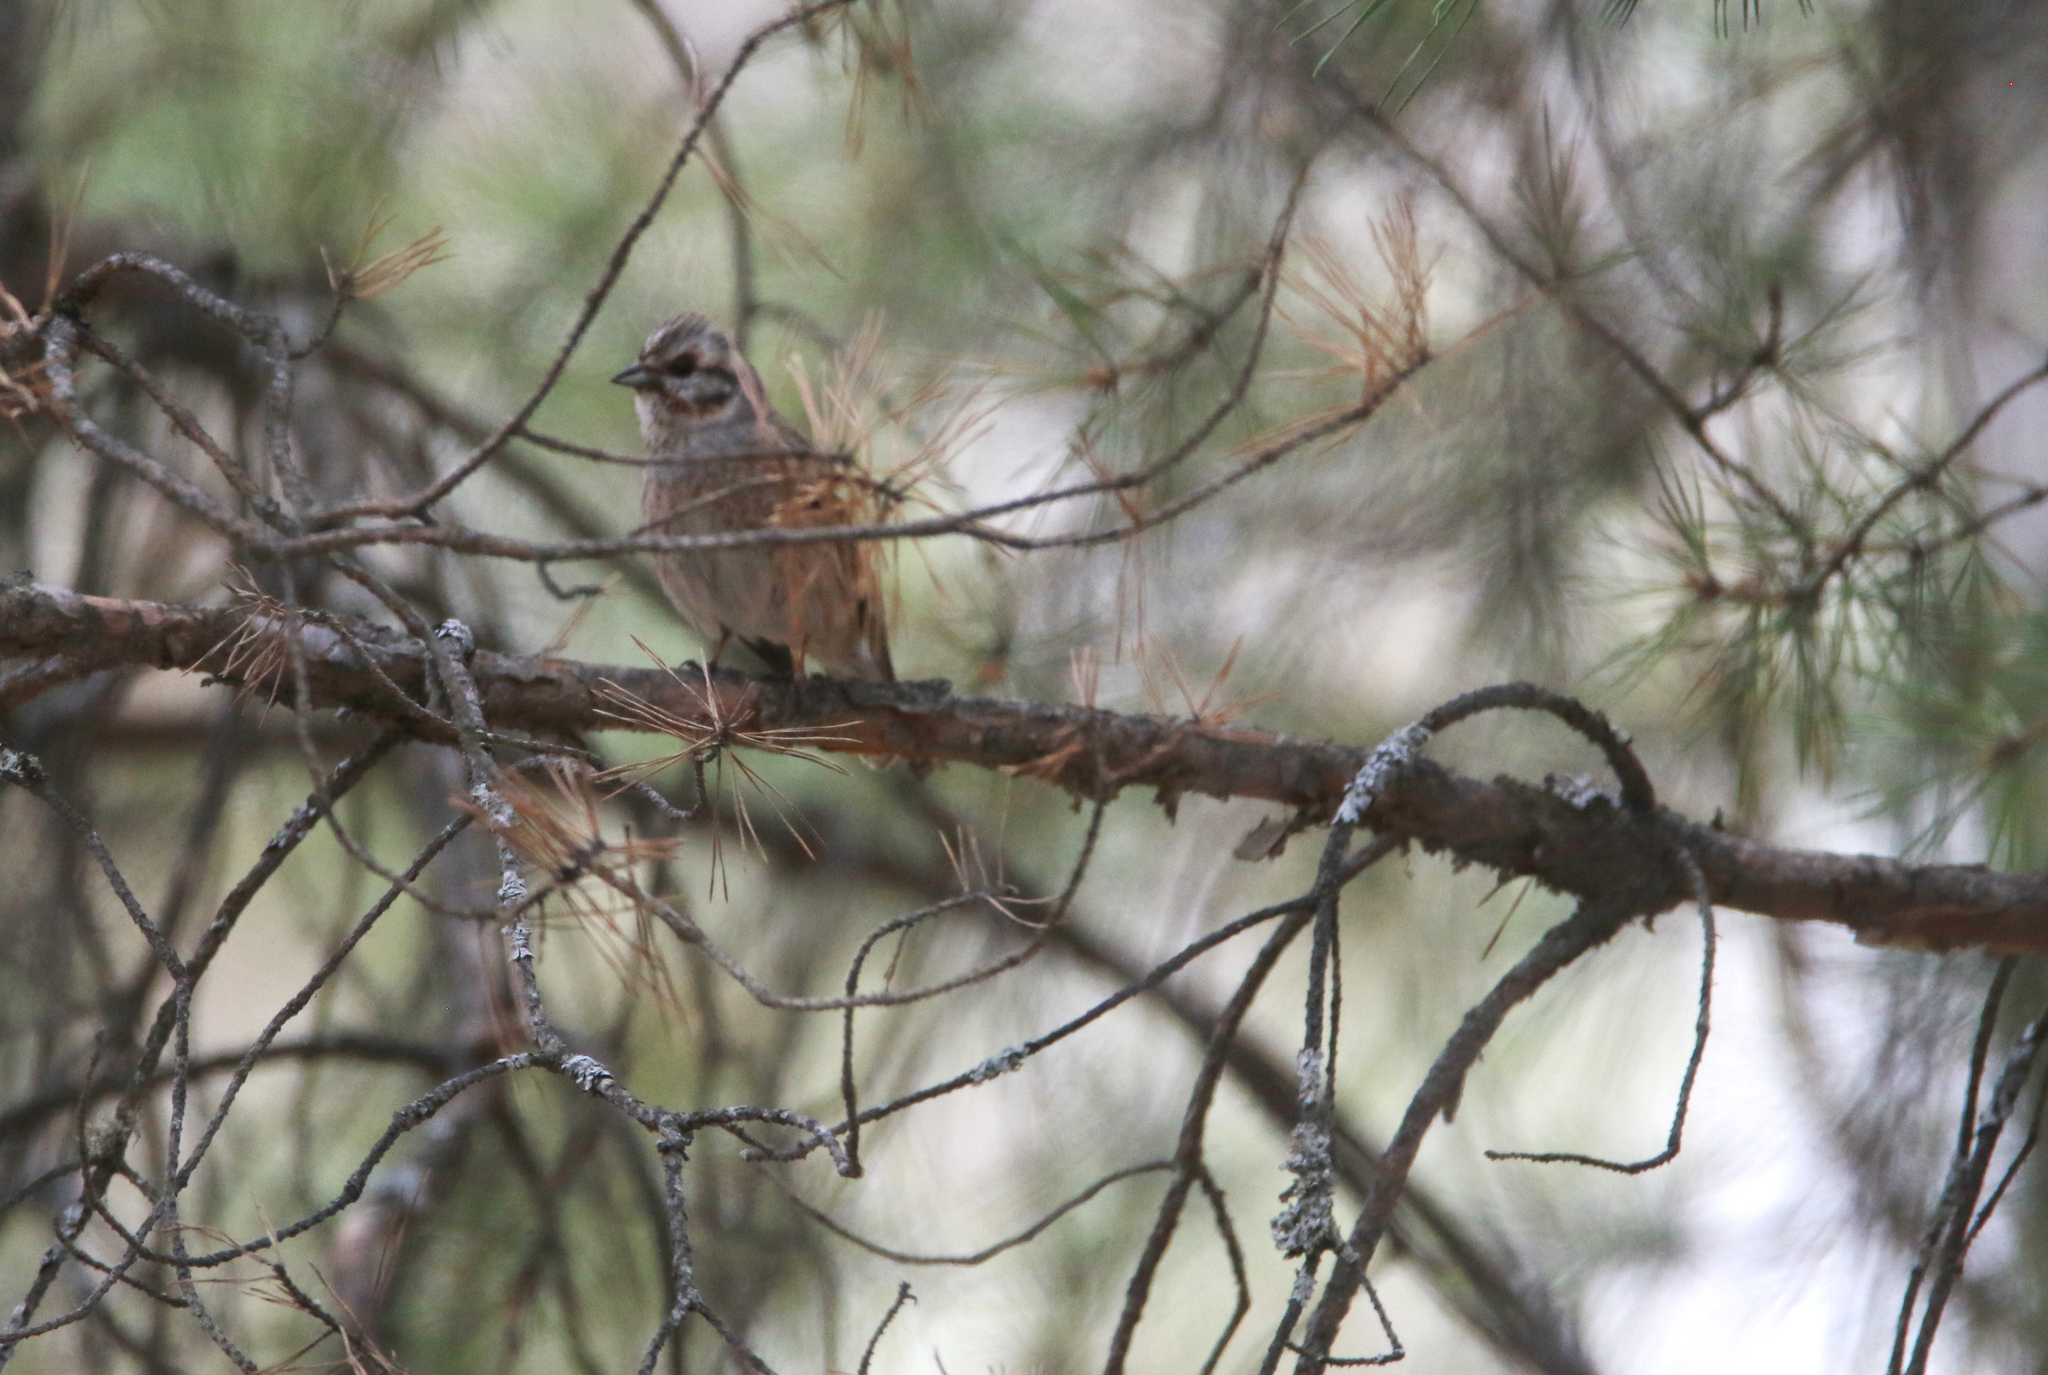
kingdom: Animalia
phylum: Chordata
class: Aves
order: Passeriformes
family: Emberizidae
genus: Emberiza
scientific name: Emberiza
